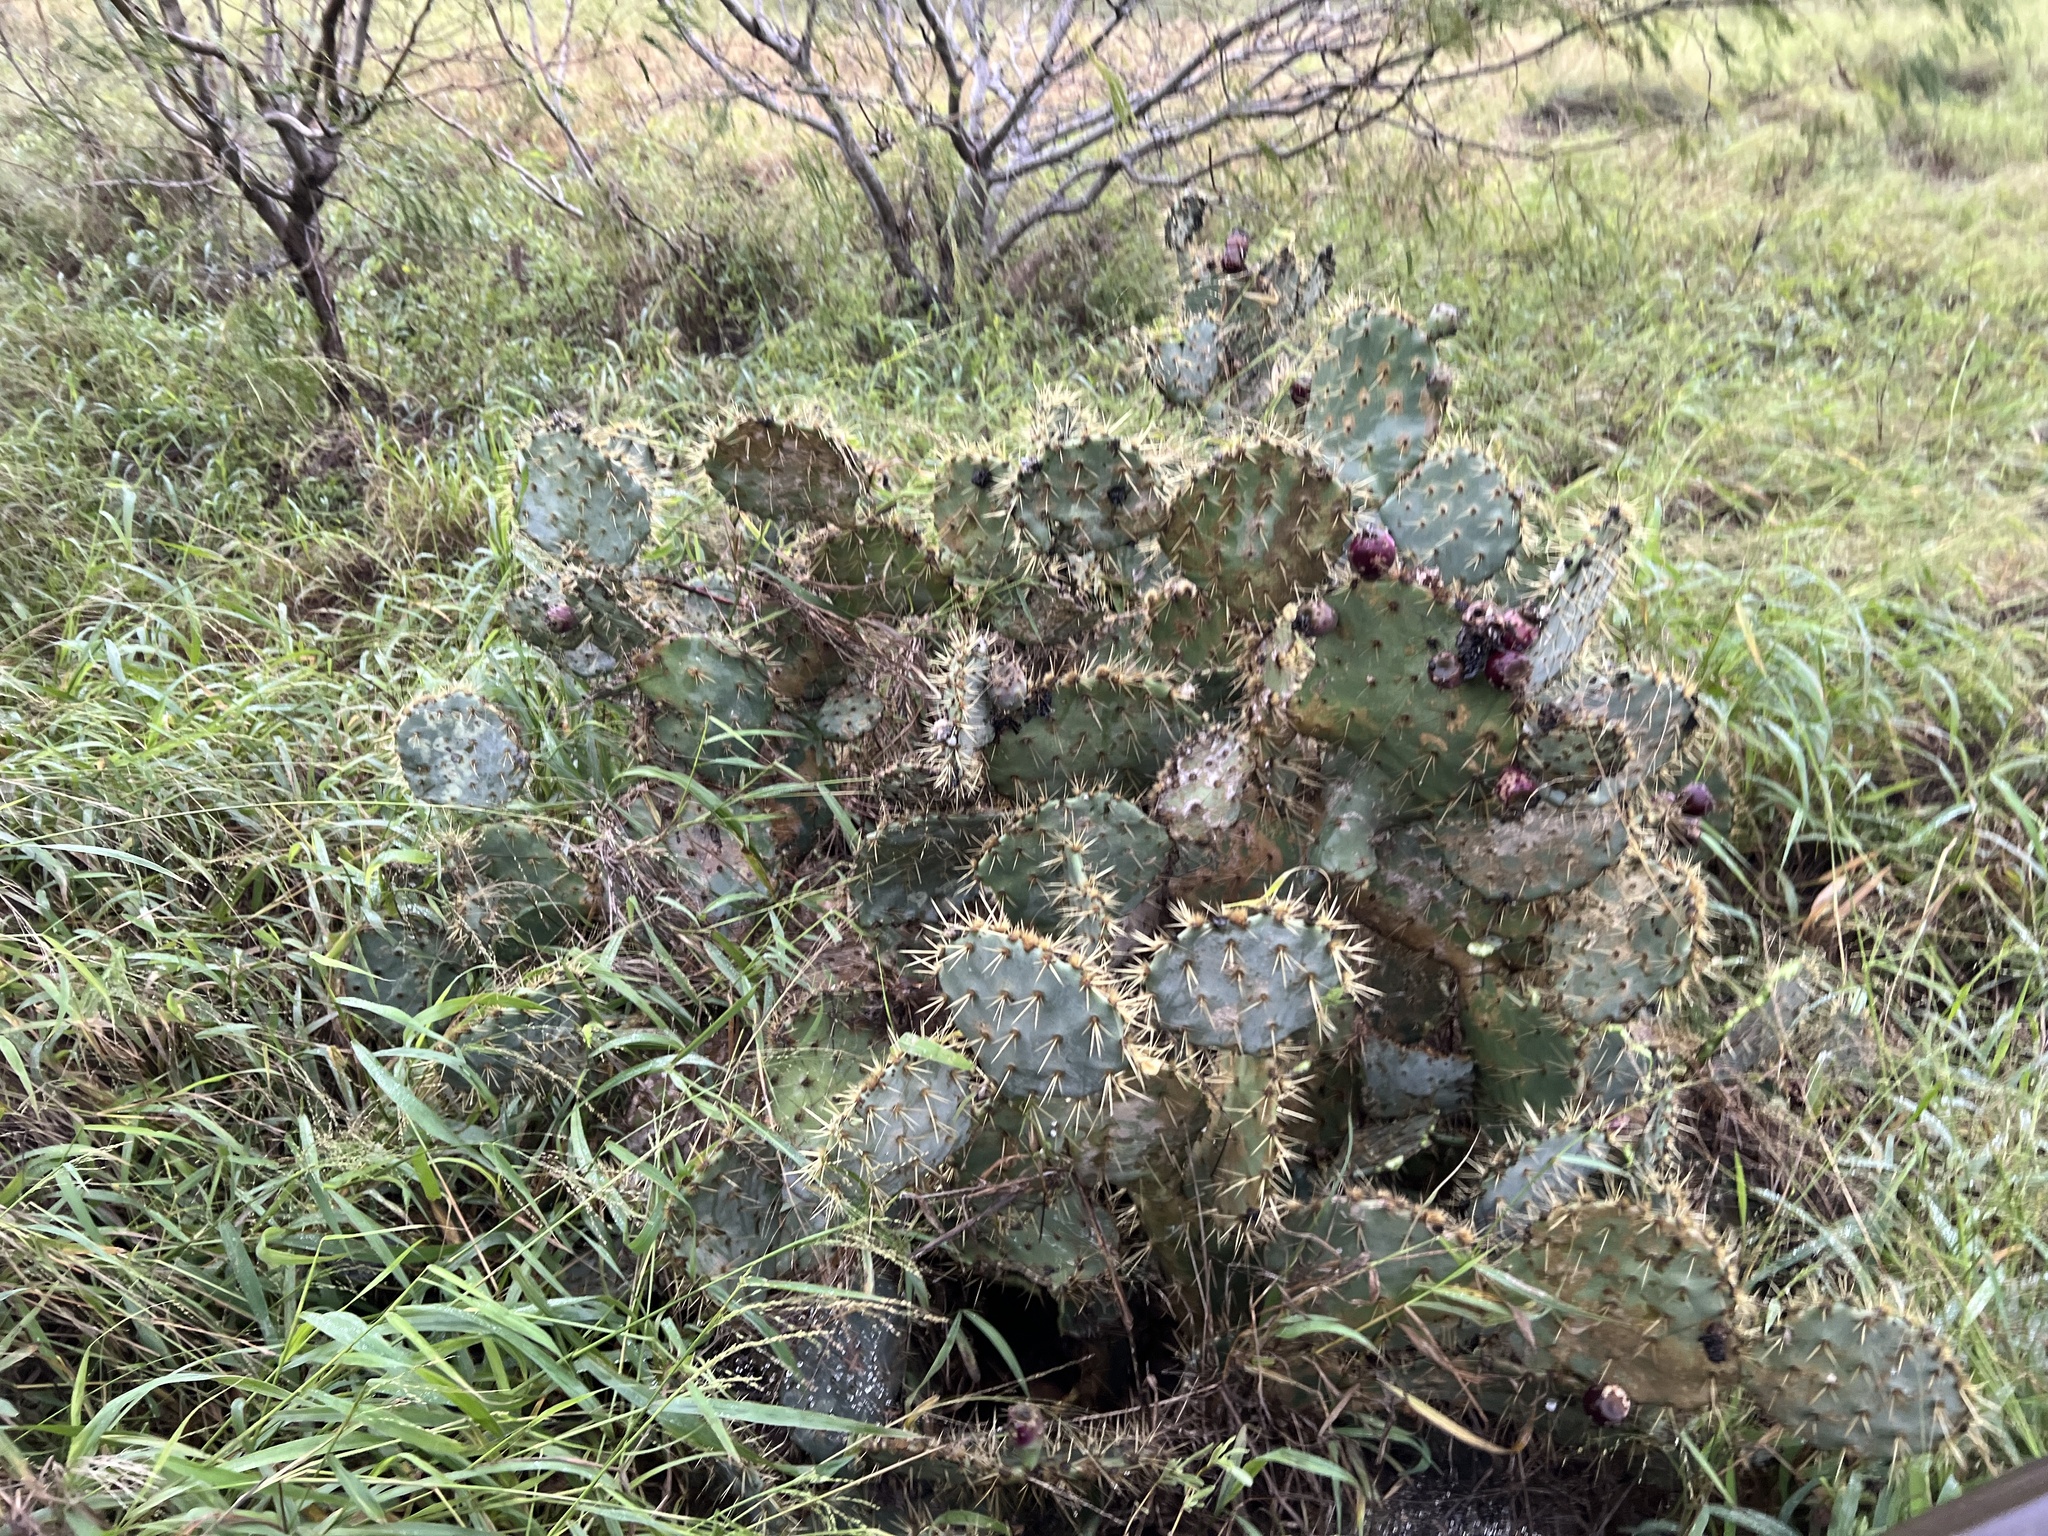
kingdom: Plantae
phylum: Tracheophyta
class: Magnoliopsida
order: Caryophyllales
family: Cactaceae
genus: Opuntia
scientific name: Opuntia engelmannii
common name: Cactus-apple
